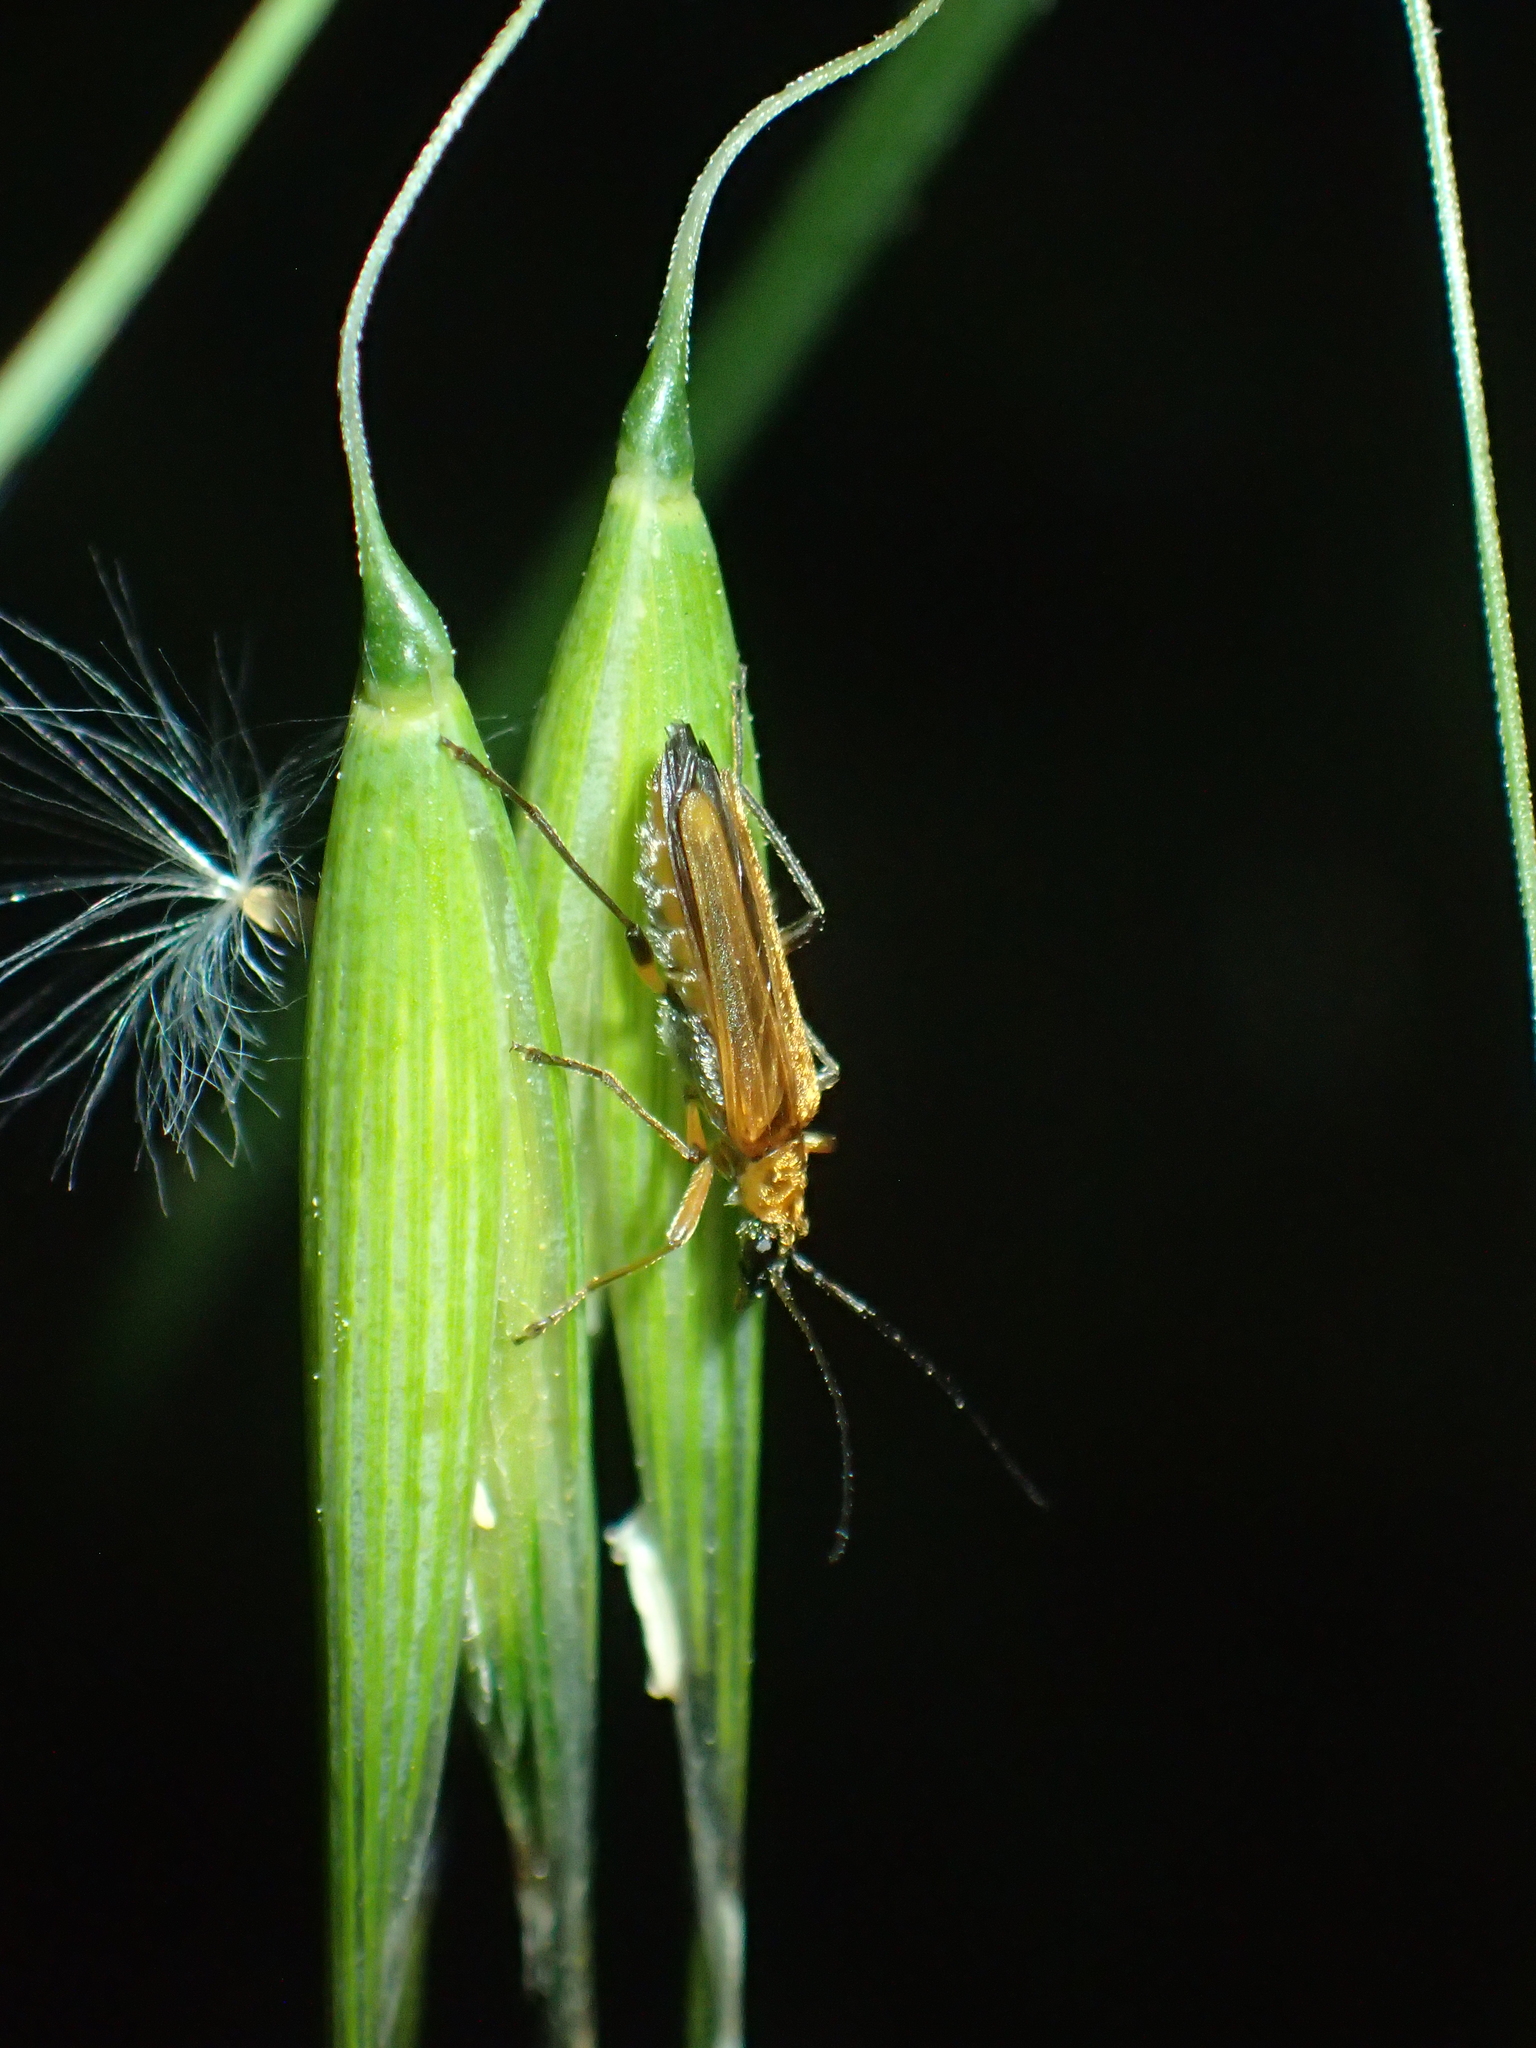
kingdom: Animalia
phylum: Arthropoda
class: Insecta
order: Coleoptera
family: Oedemeridae
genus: Oedemera
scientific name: Oedemera podagrariae
